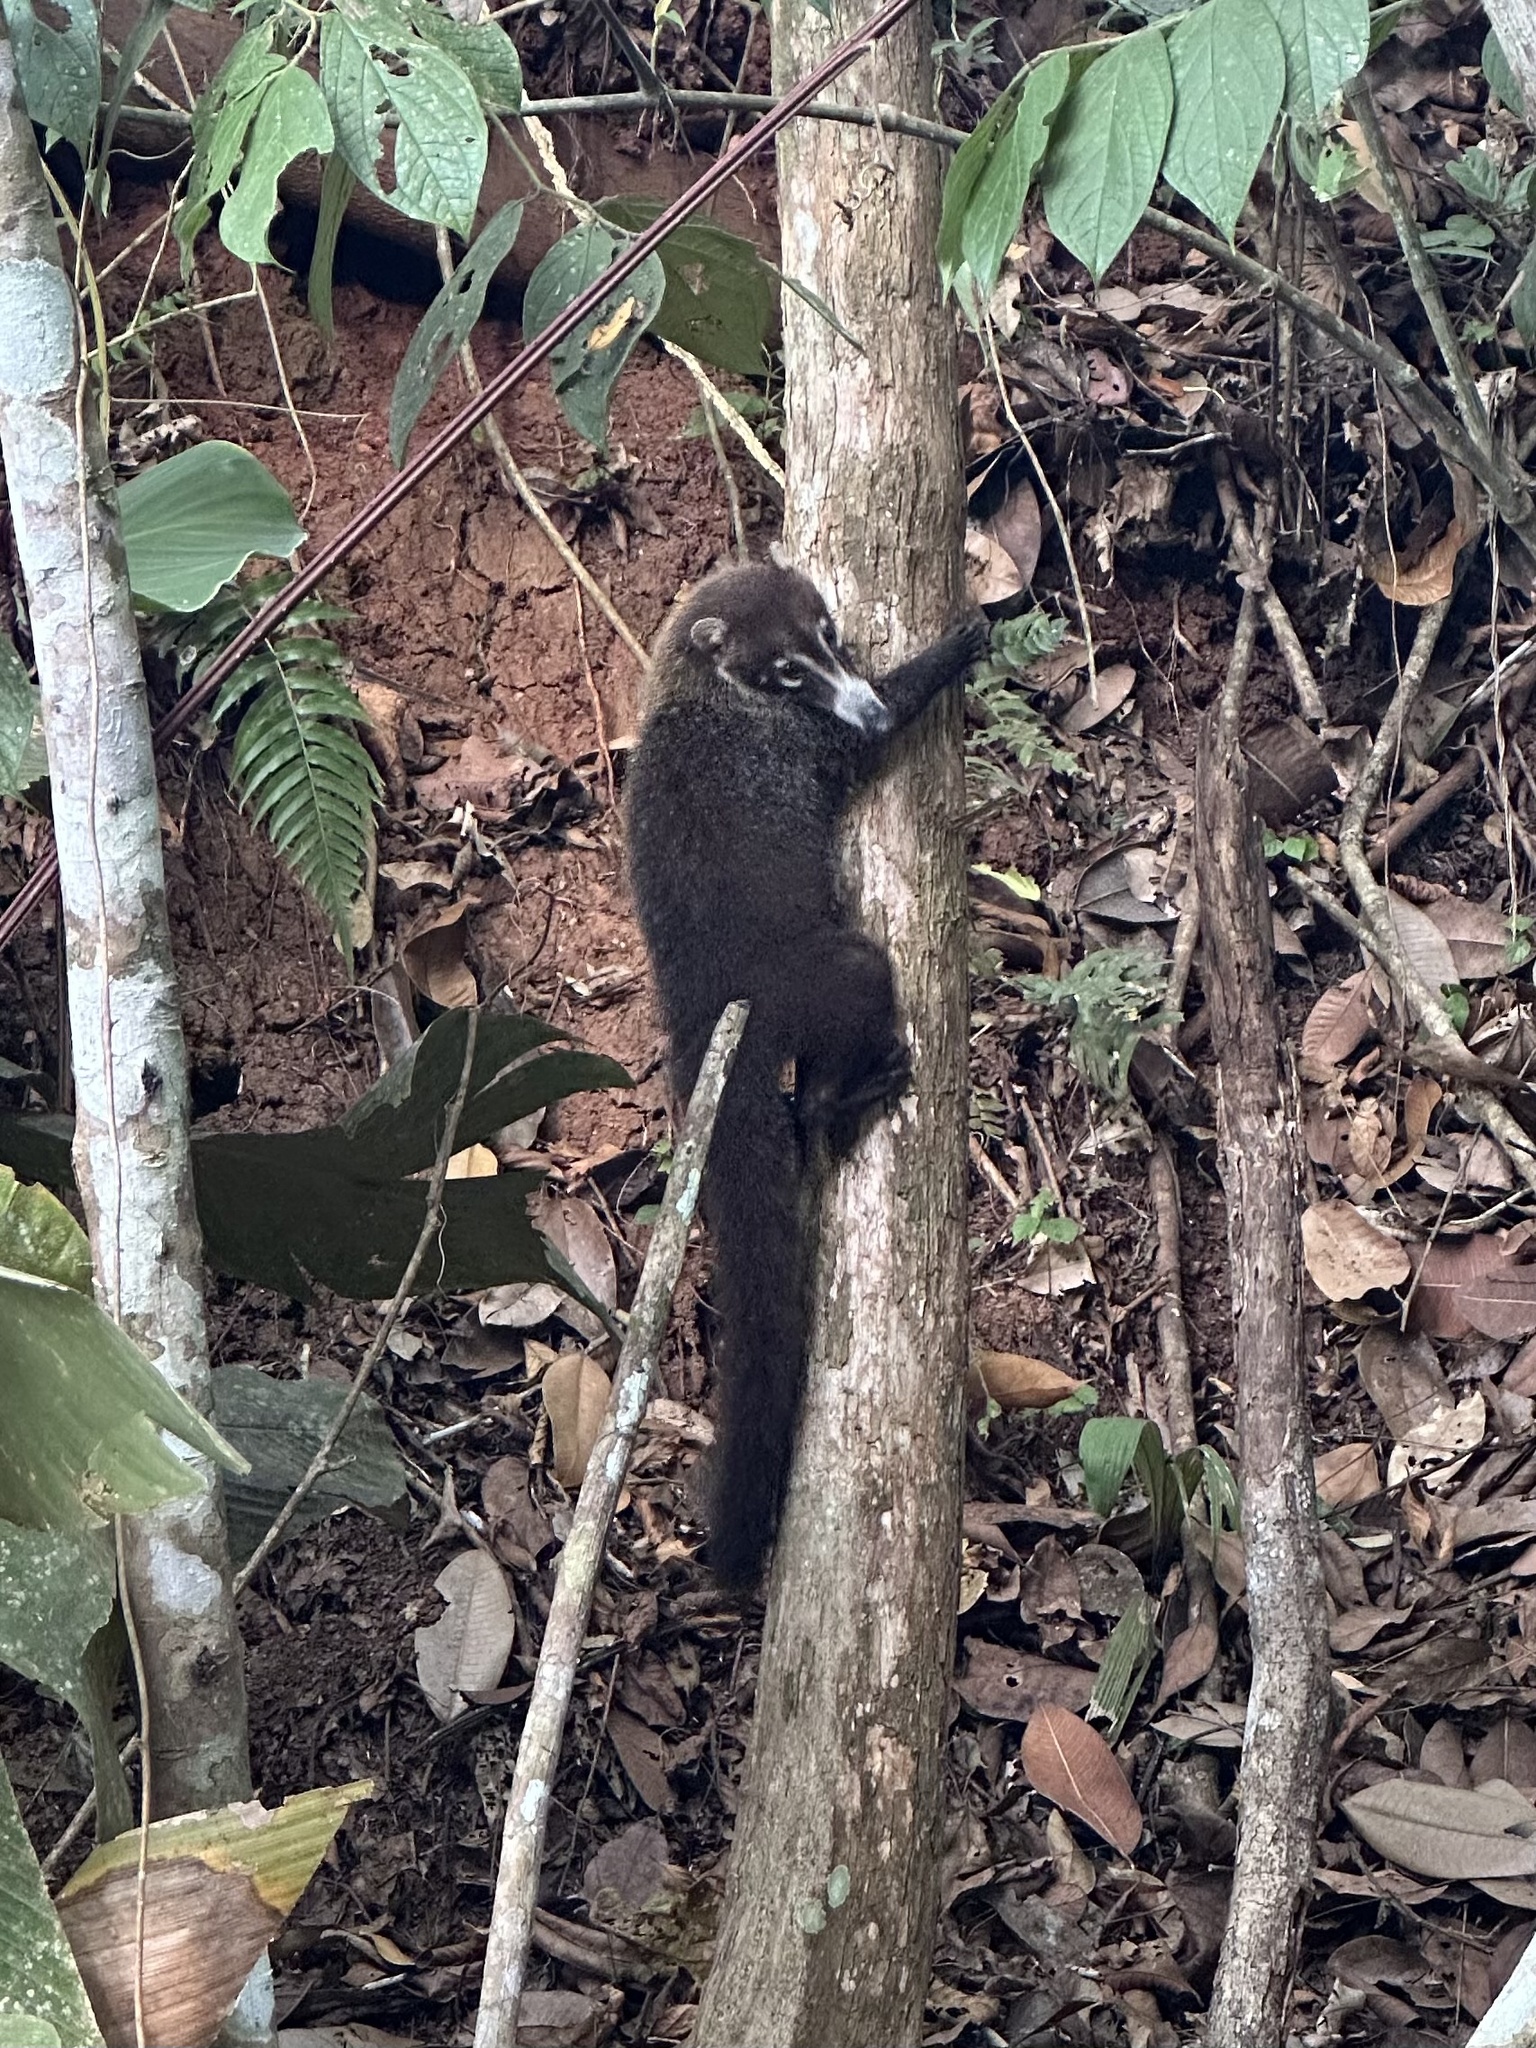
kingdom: Animalia
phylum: Chordata
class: Mammalia
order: Carnivora
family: Procyonidae
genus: Nasua
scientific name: Nasua narica
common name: White-nosed coati
